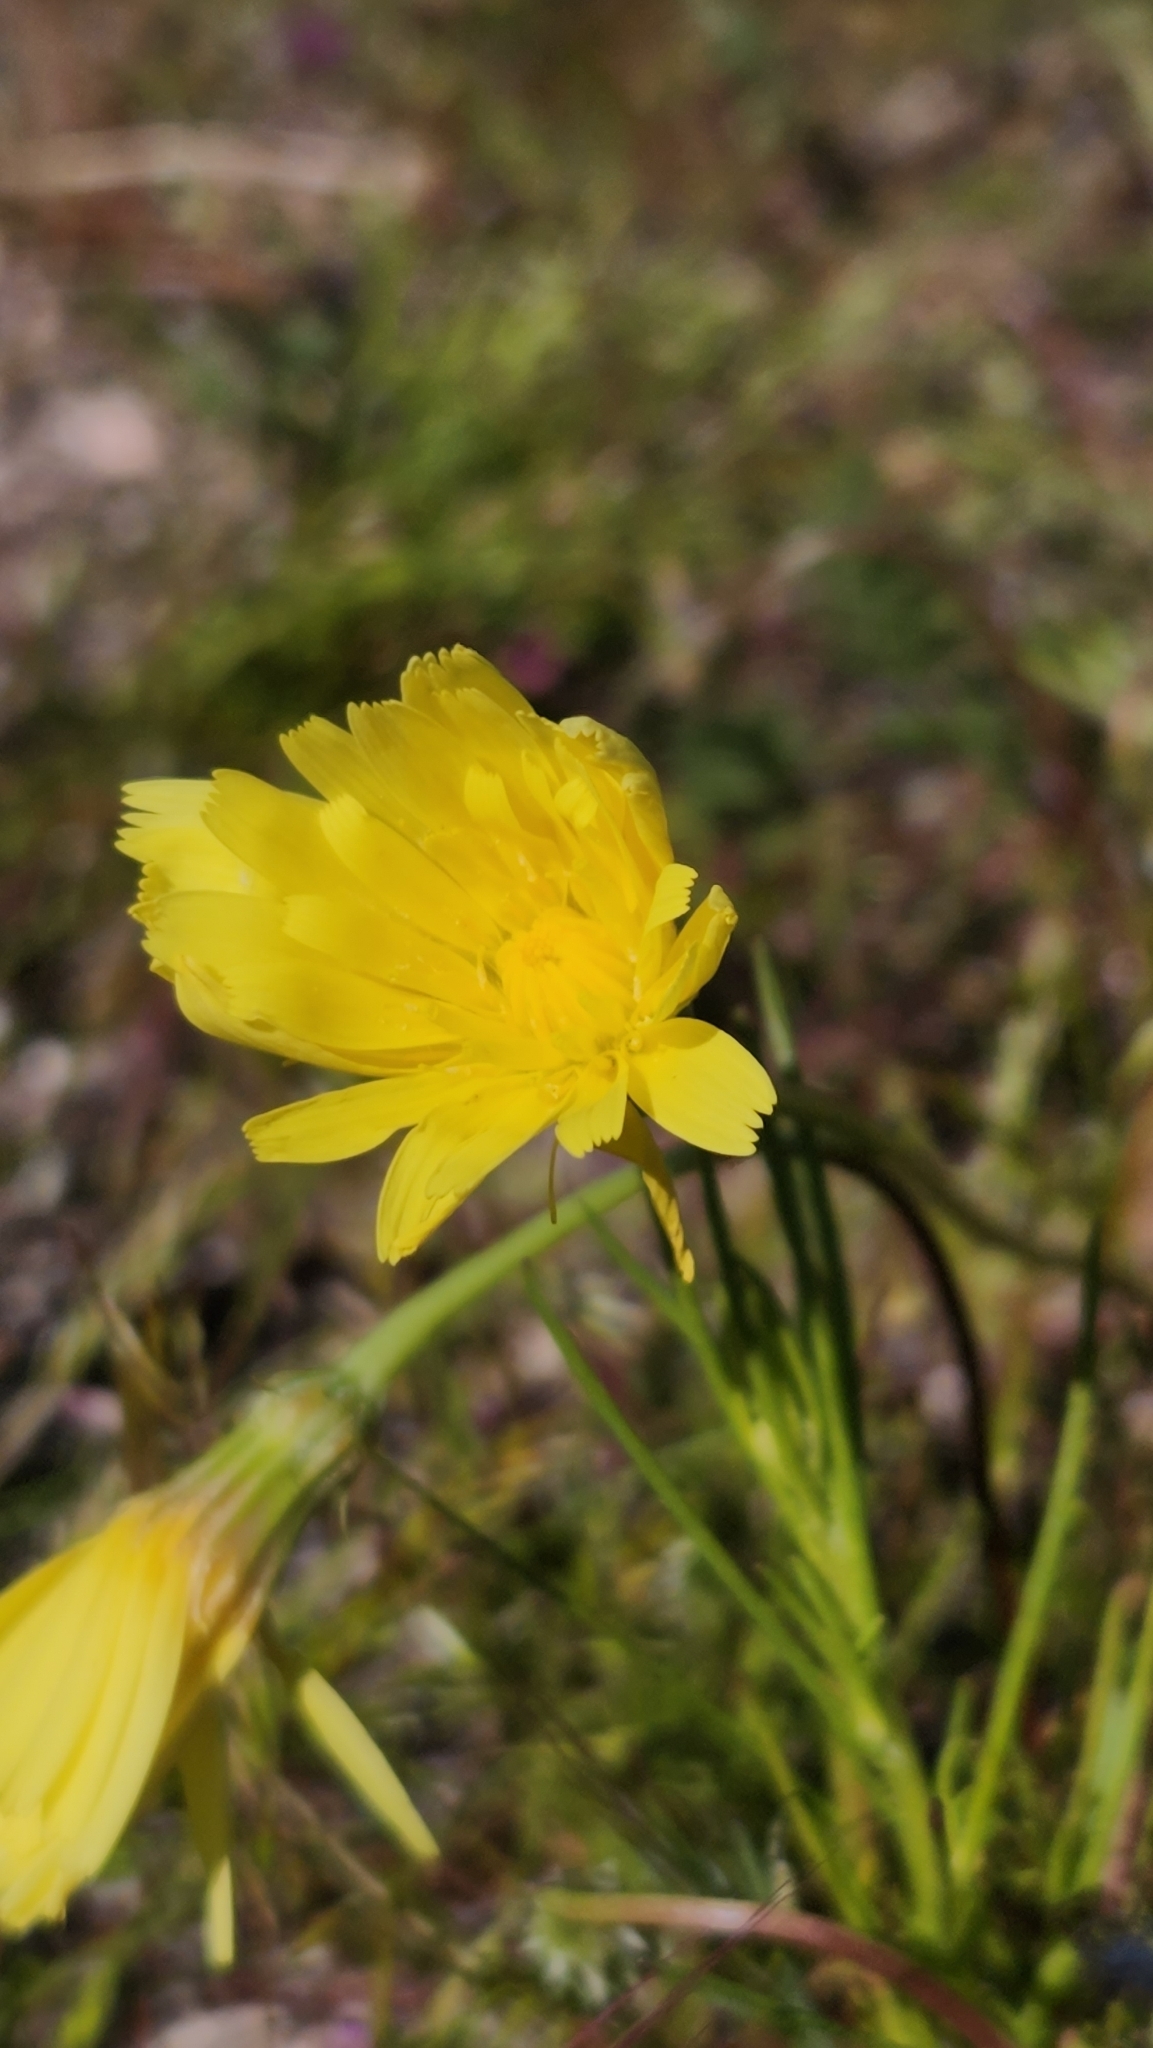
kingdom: Plantae
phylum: Tracheophyta
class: Magnoliopsida
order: Asterales
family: Asteraceae
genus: Malacothrix
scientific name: Malacothrix glabrata
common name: Smooth desert-dandelion
